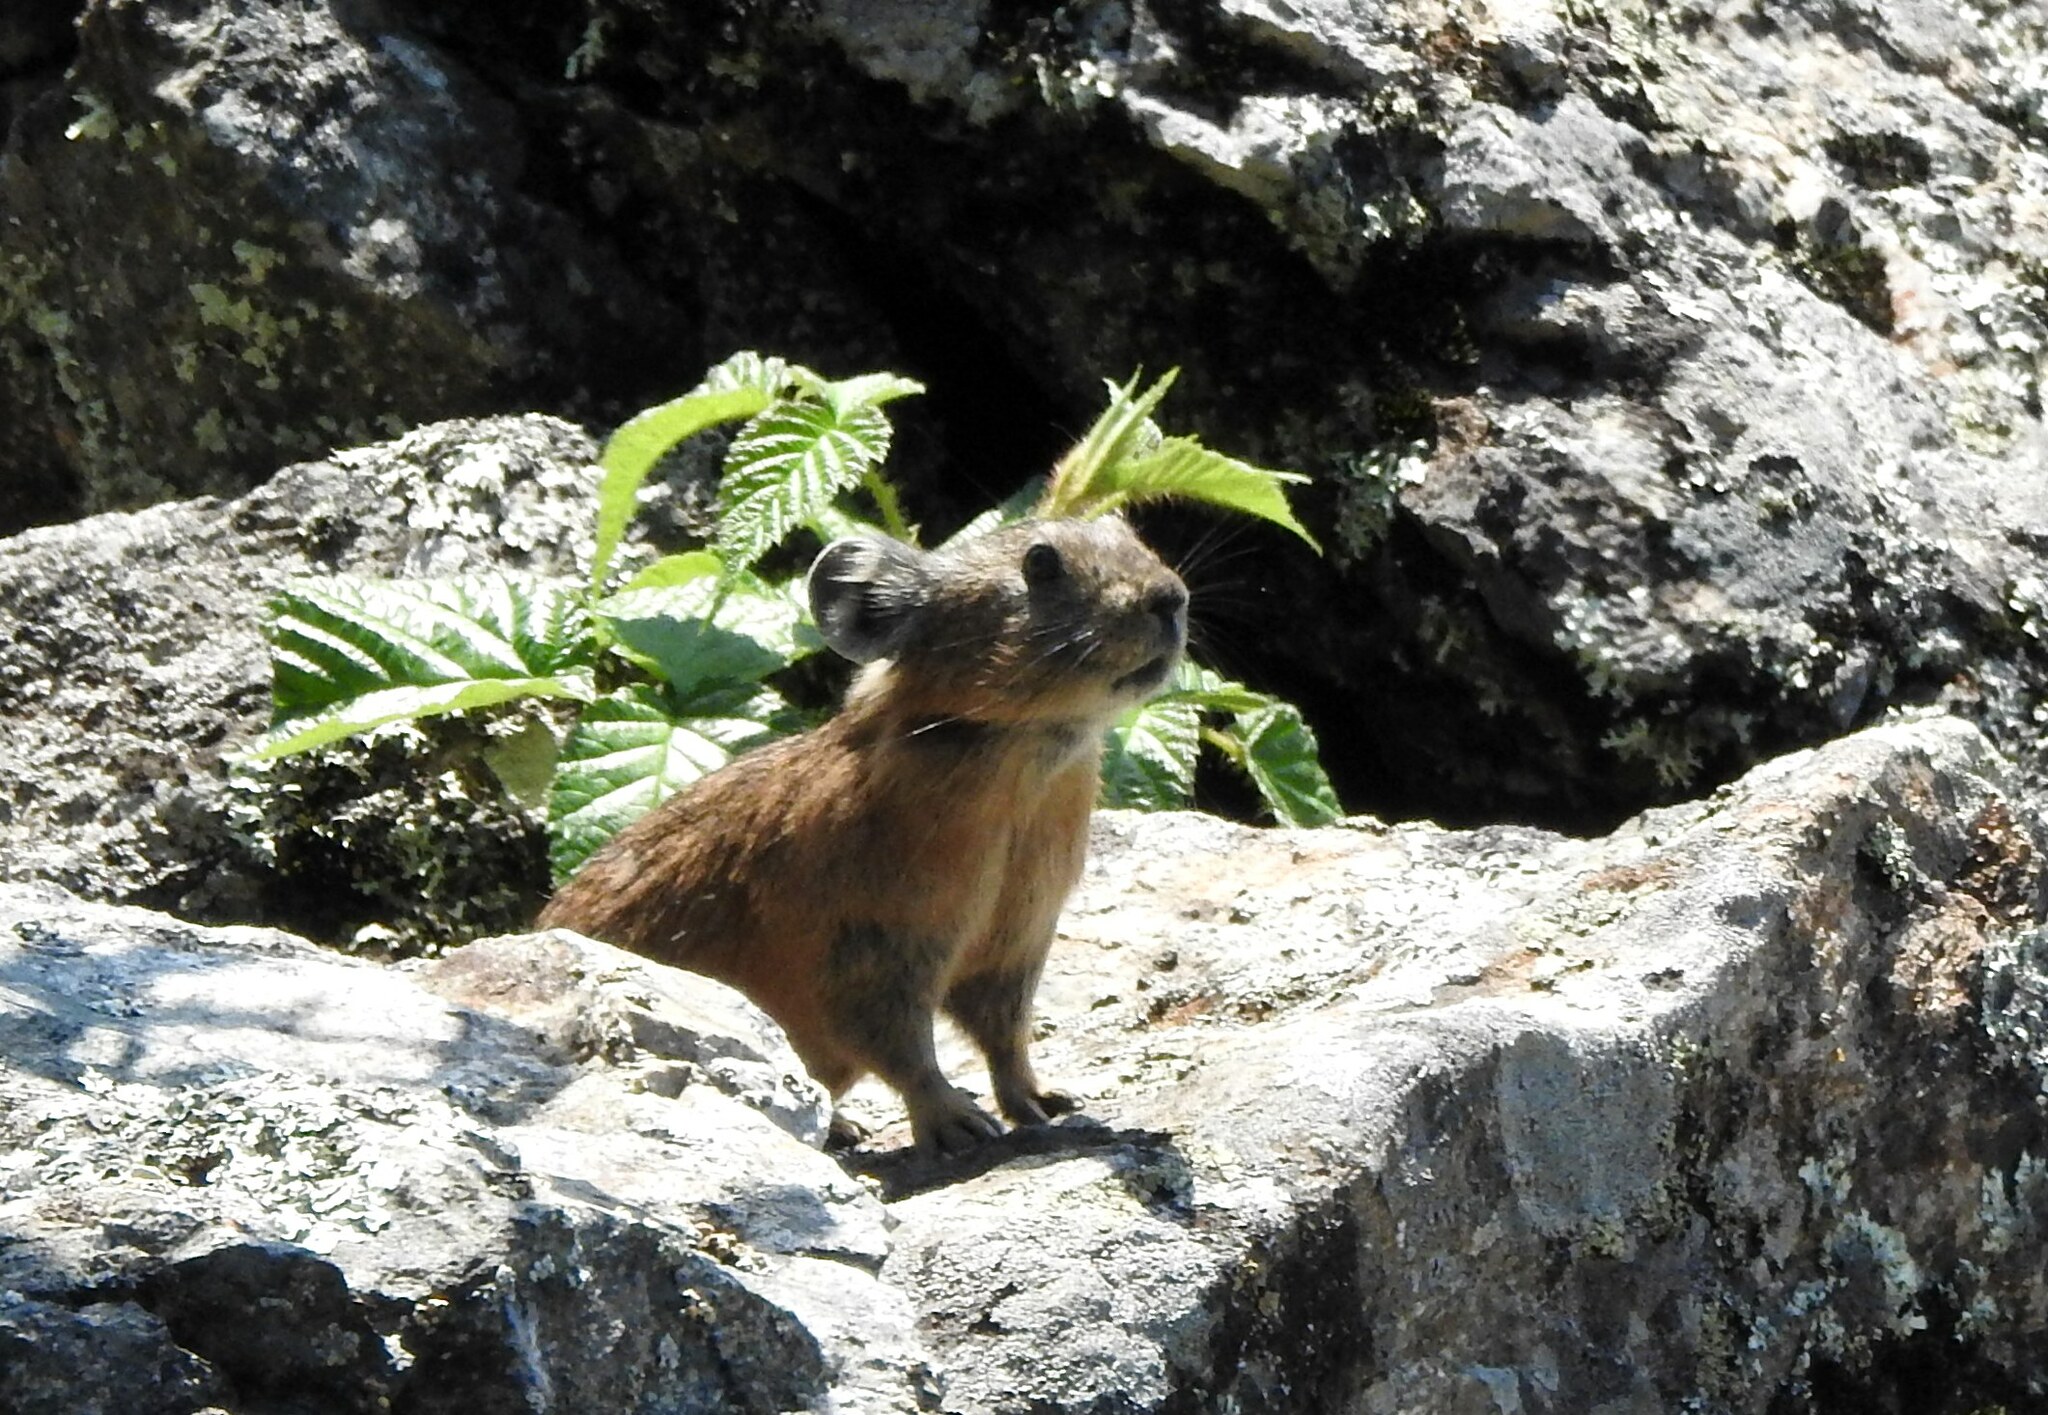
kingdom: Animalia
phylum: Chordata
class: Mammalia
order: Lagomorpha
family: Ochotonidae
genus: Ochotona
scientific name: Ochotona mantchurica
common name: Manchurian pika
